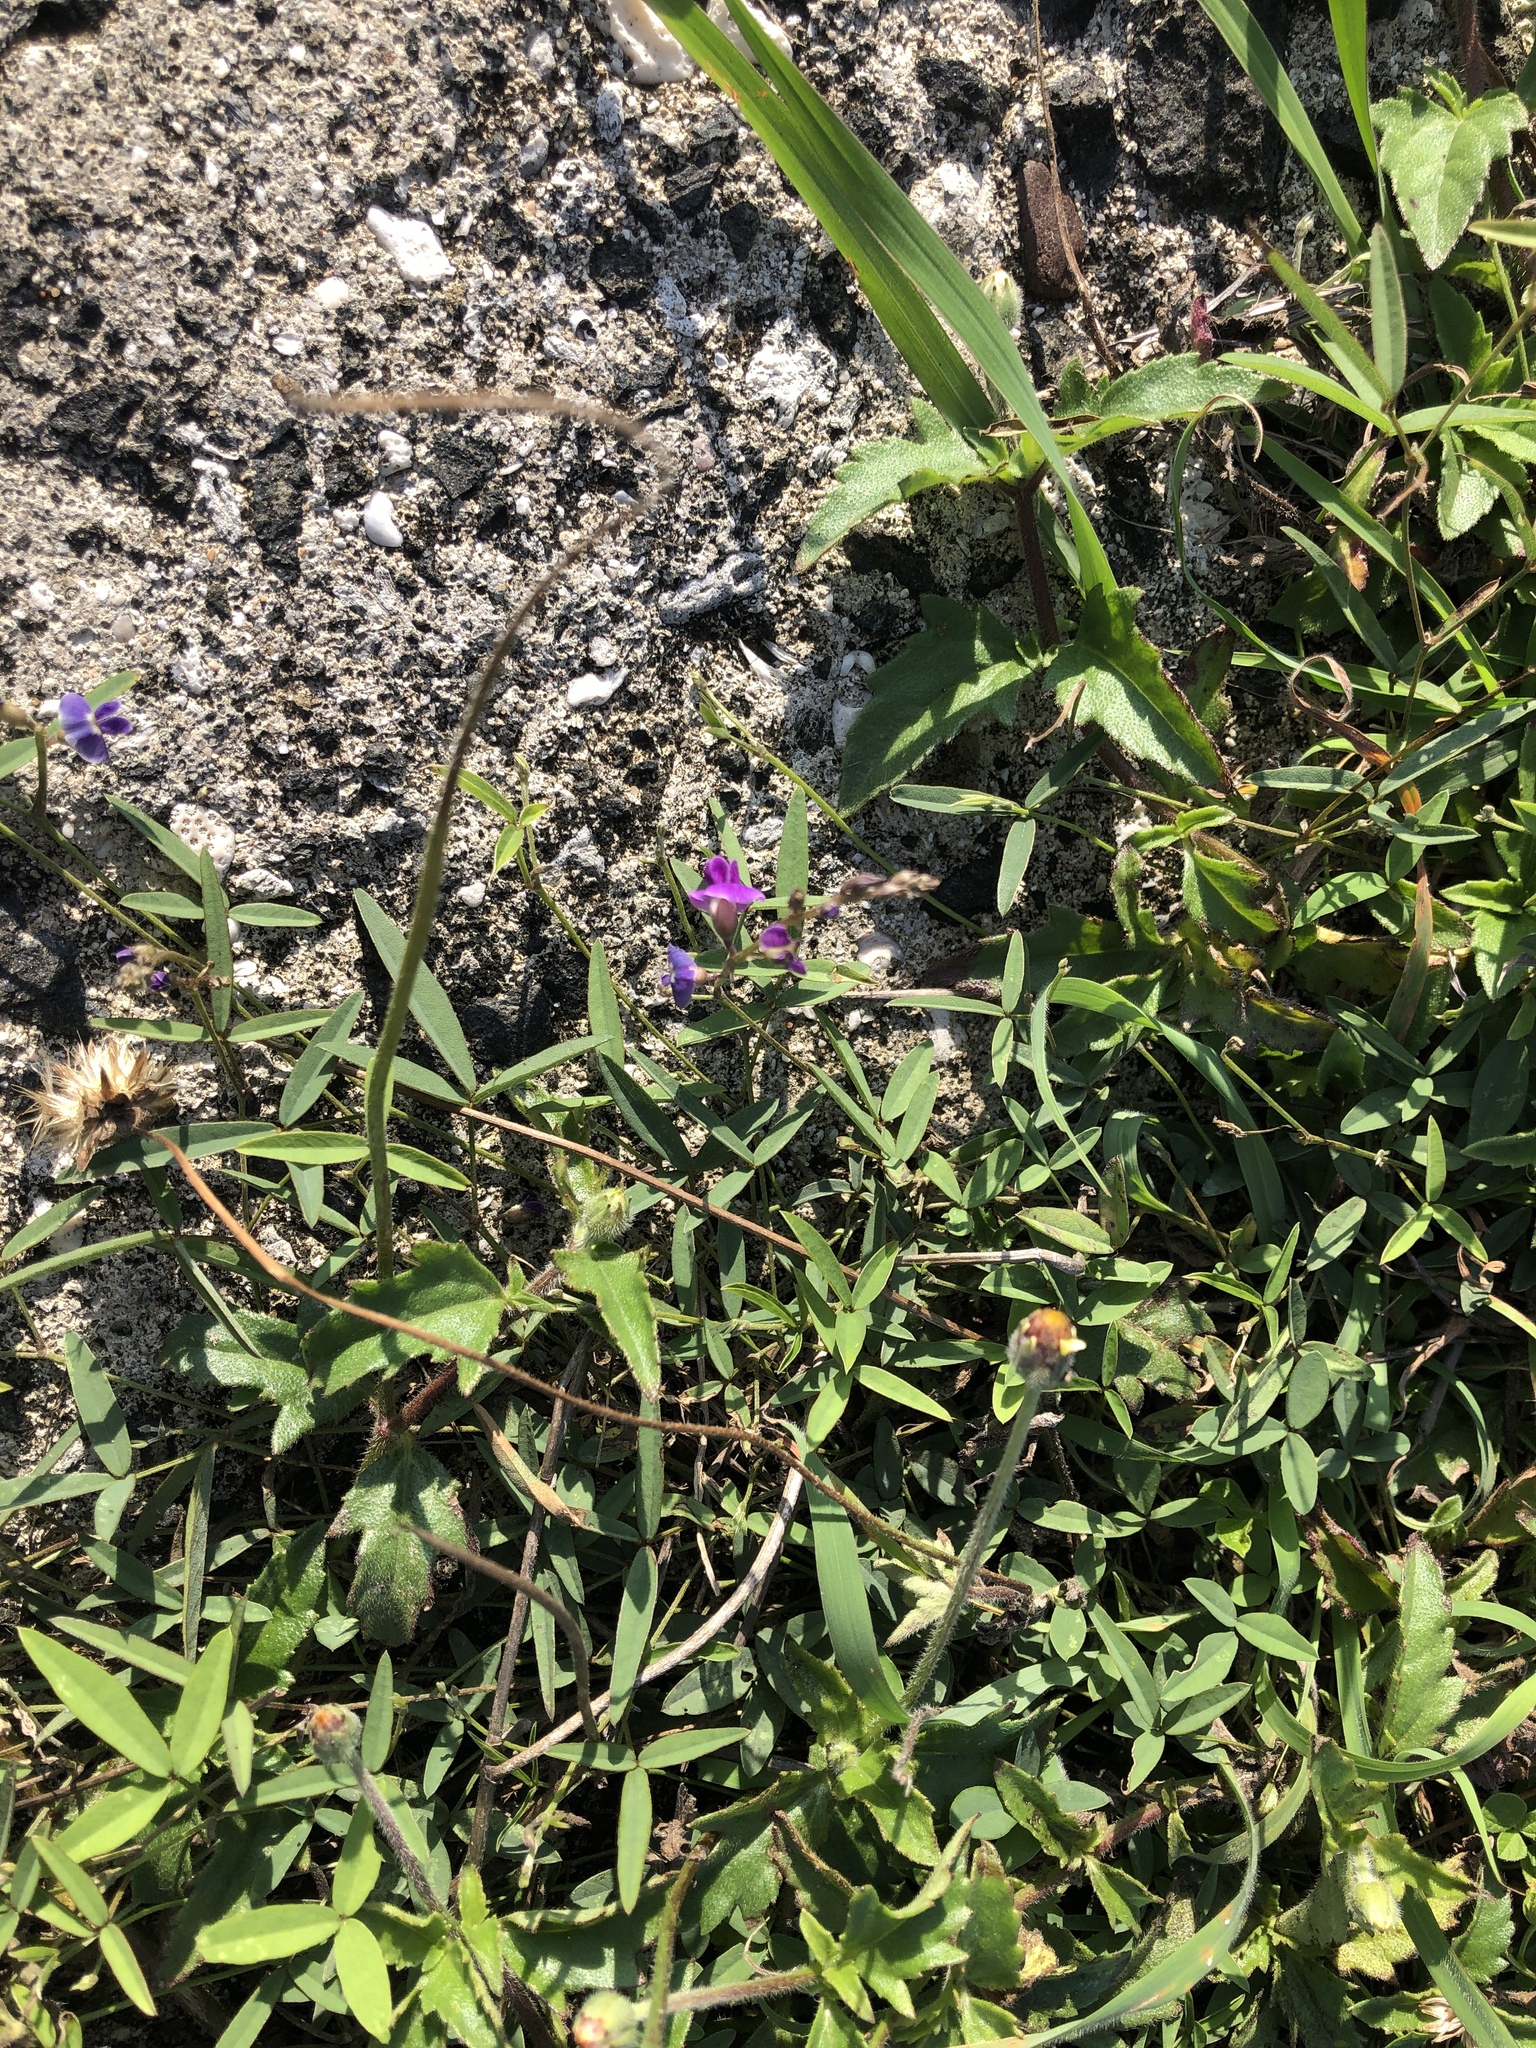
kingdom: Plantae
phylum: Tracheophyta
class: Magnoliopsida
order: Fabales
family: Fabaceae
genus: Glycine
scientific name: Glycine tabacina
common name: Pea glycine
